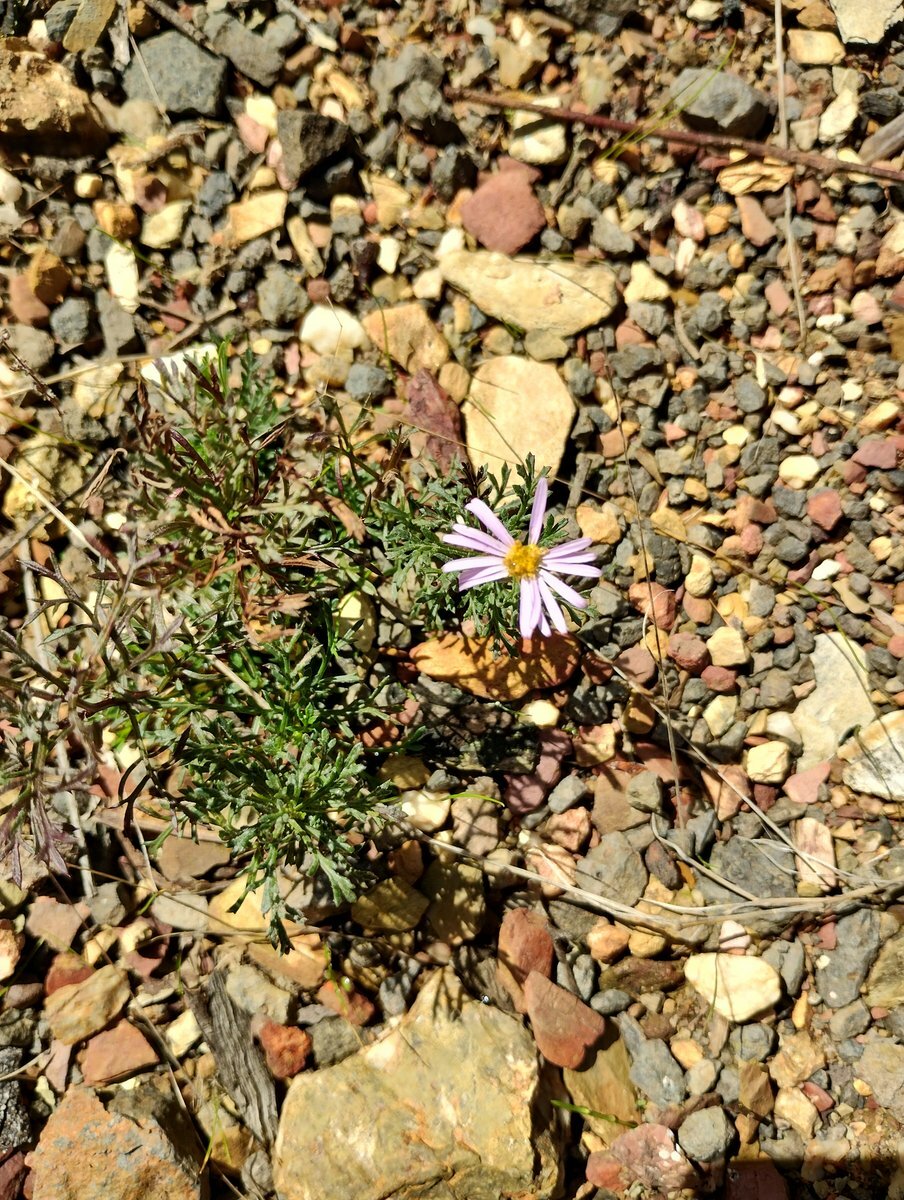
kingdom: Plantae
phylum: Tracheophyta
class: Magnoliopsida
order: Asterales
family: Asteraceae
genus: Brachyscome
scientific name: Brachyscome multifida
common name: Cut-leaf daisy
